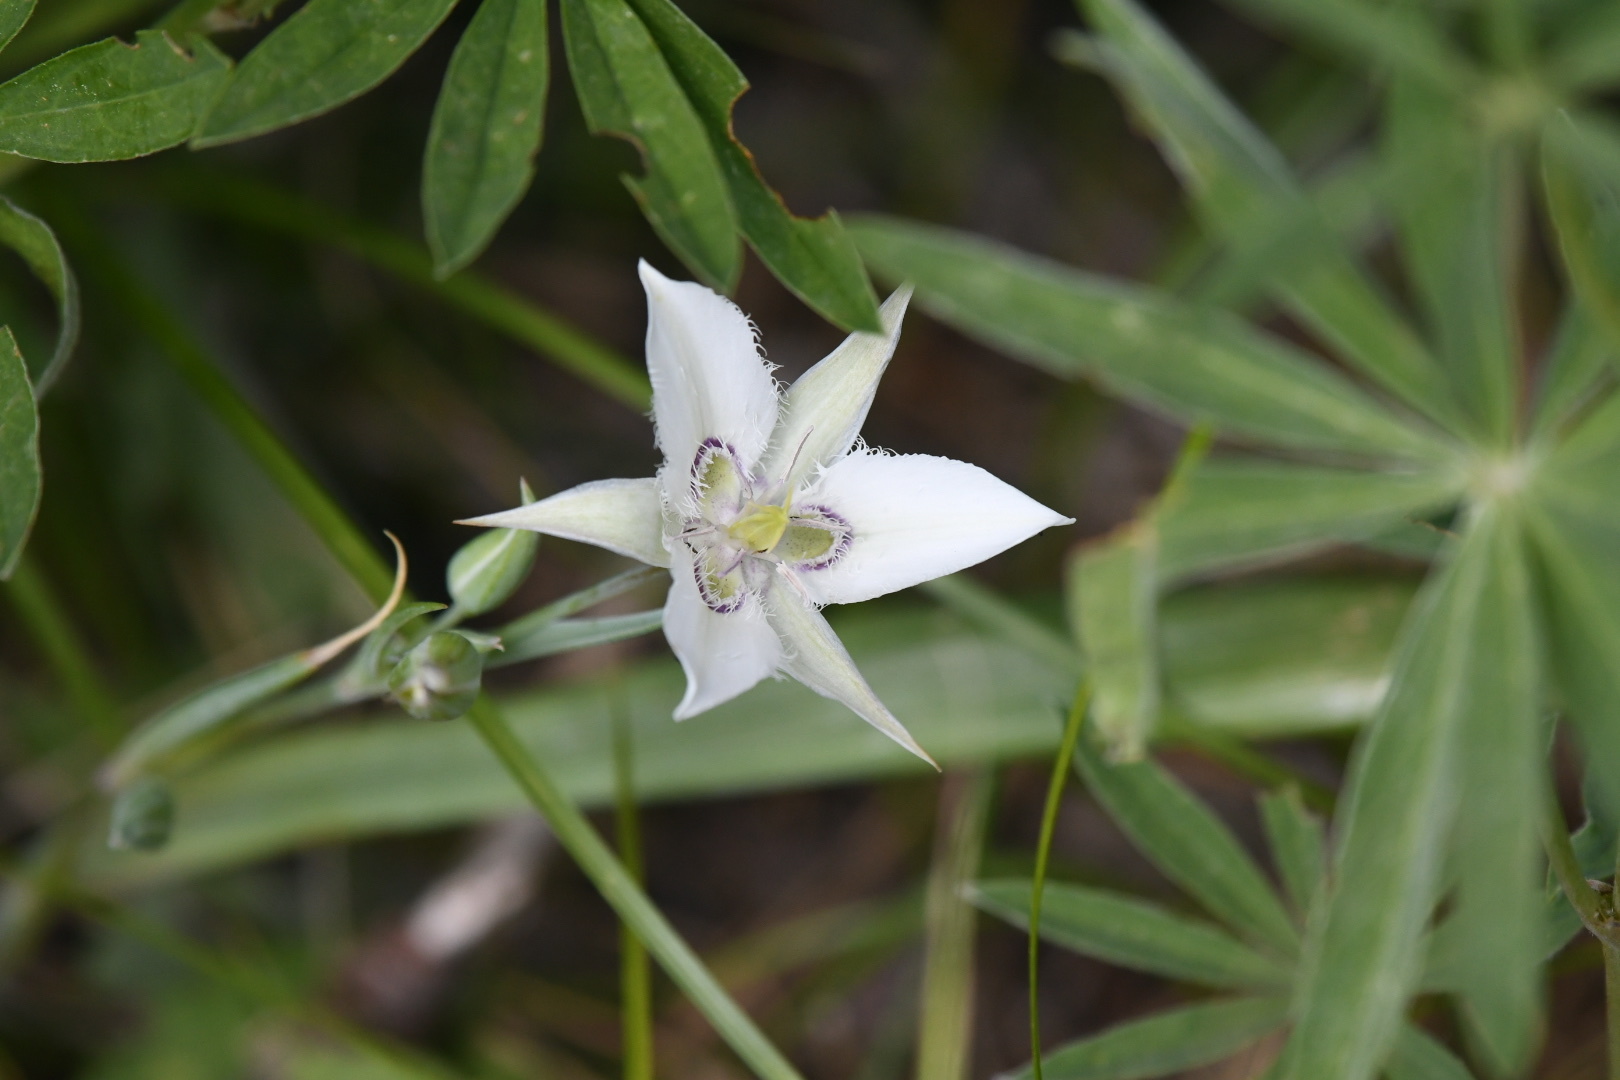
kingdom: Plantae
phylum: Tracheophyta
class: Liliopsida
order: Liliales
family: Liliaceae
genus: Calochortus
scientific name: Calochortus lyallii
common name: Lyall's mariposa lily
